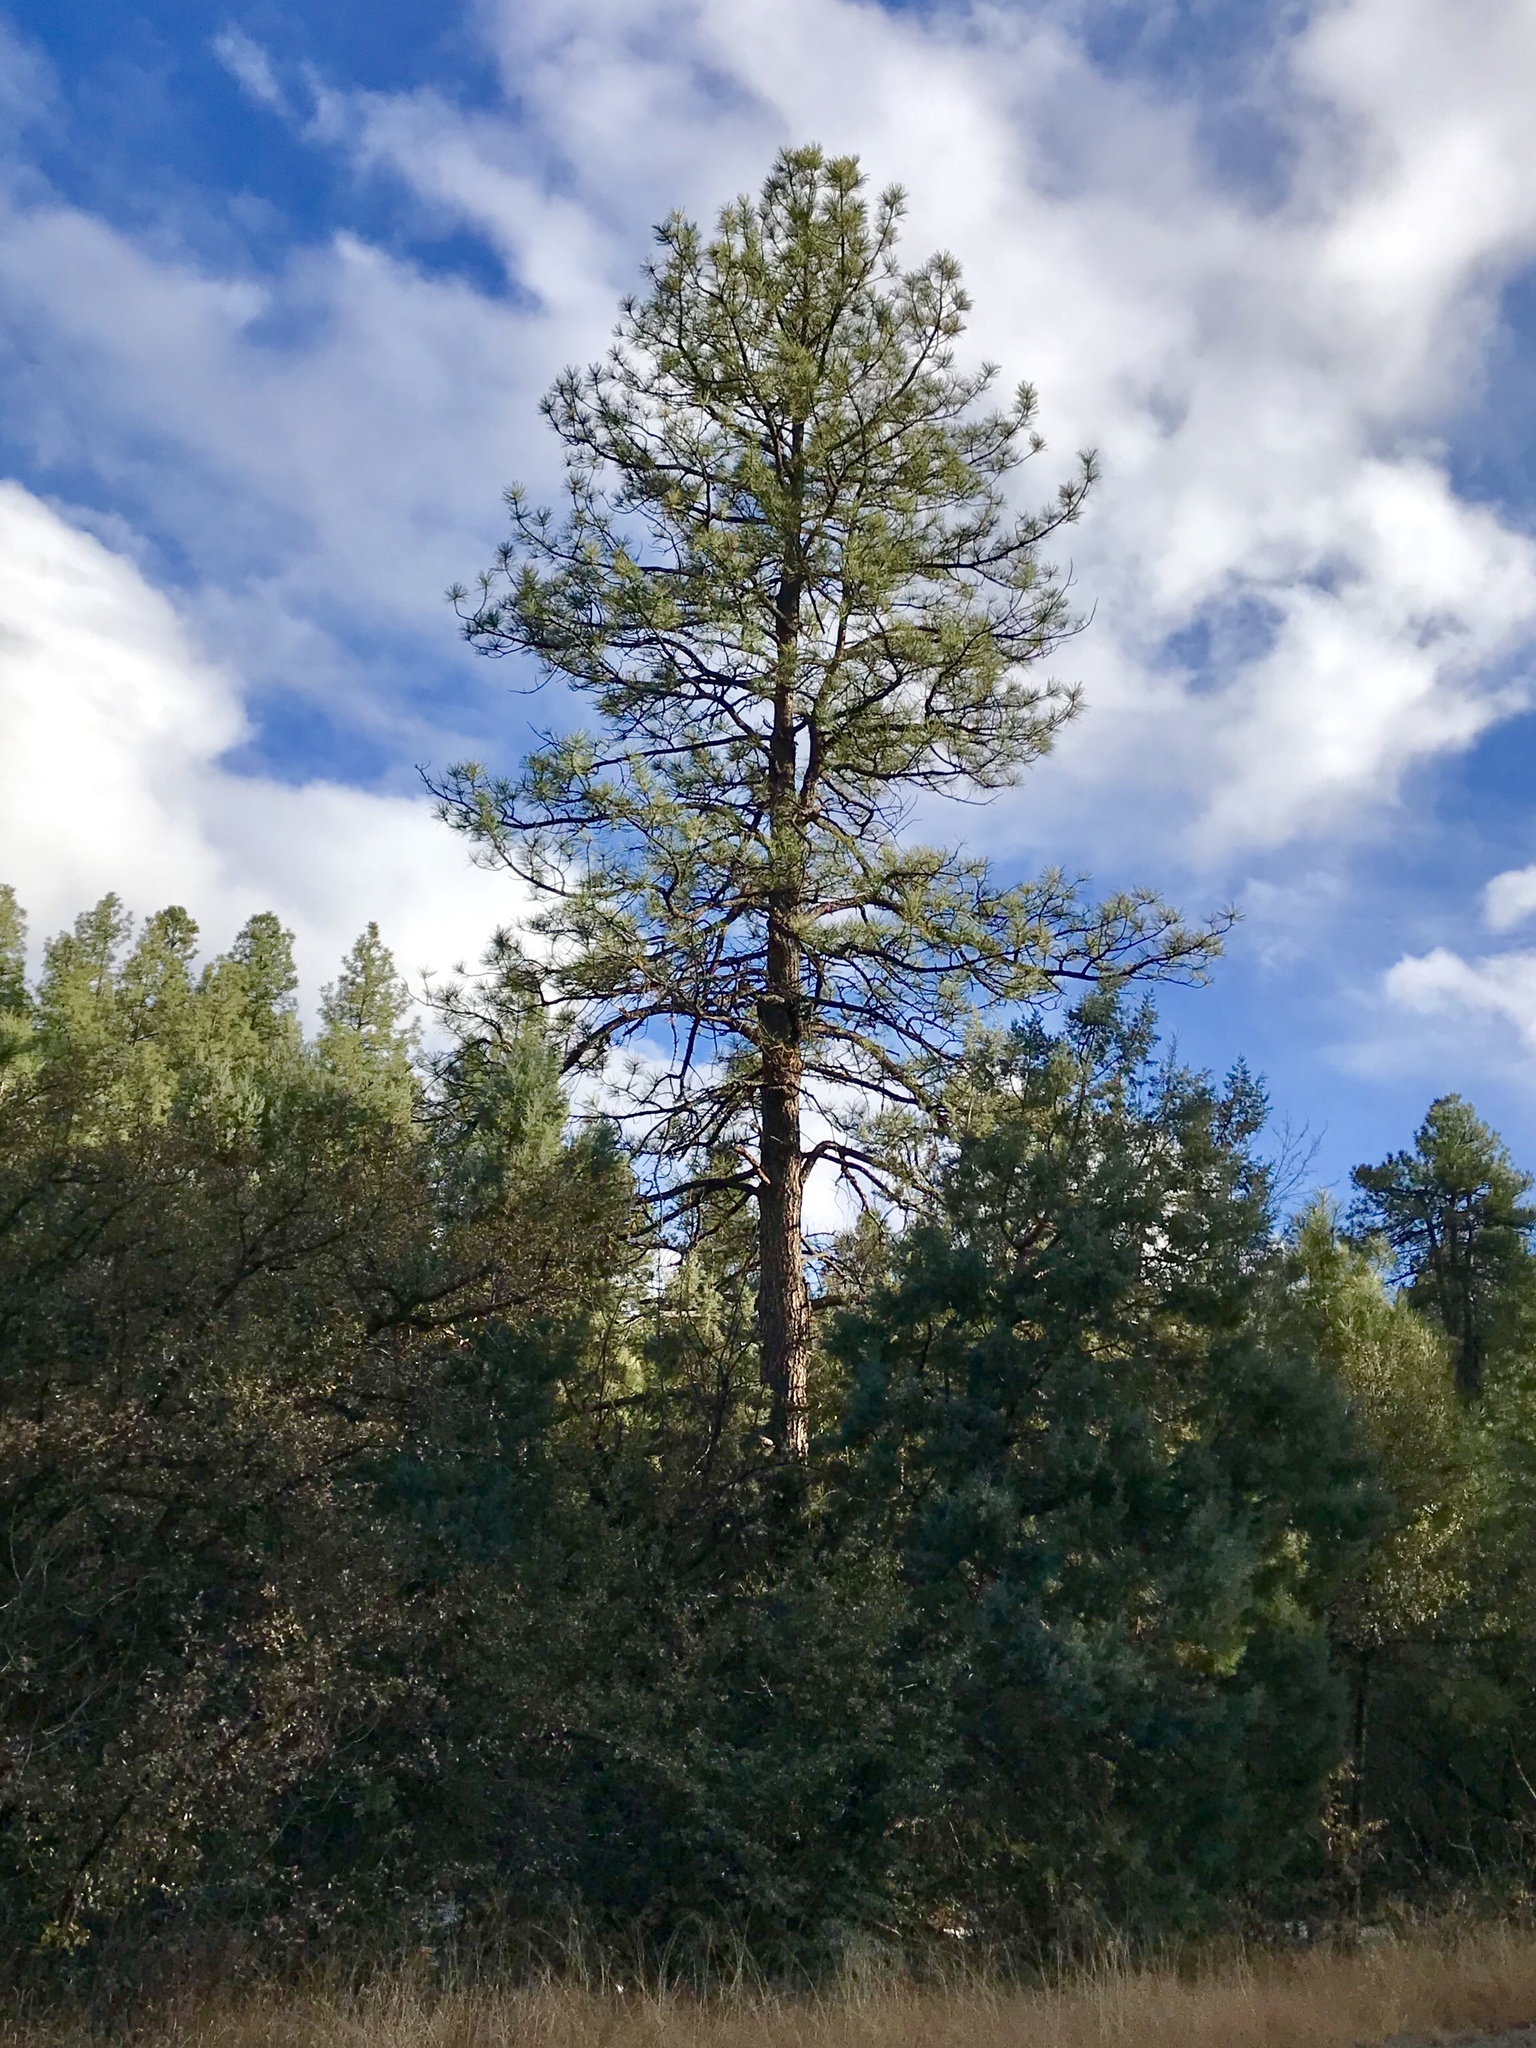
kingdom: Plantae
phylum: Tracheophyta
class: Pinopsida
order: Pinales
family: Pinaceae
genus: Pinus
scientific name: Pinus ponderosa
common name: Western yellow-pine
